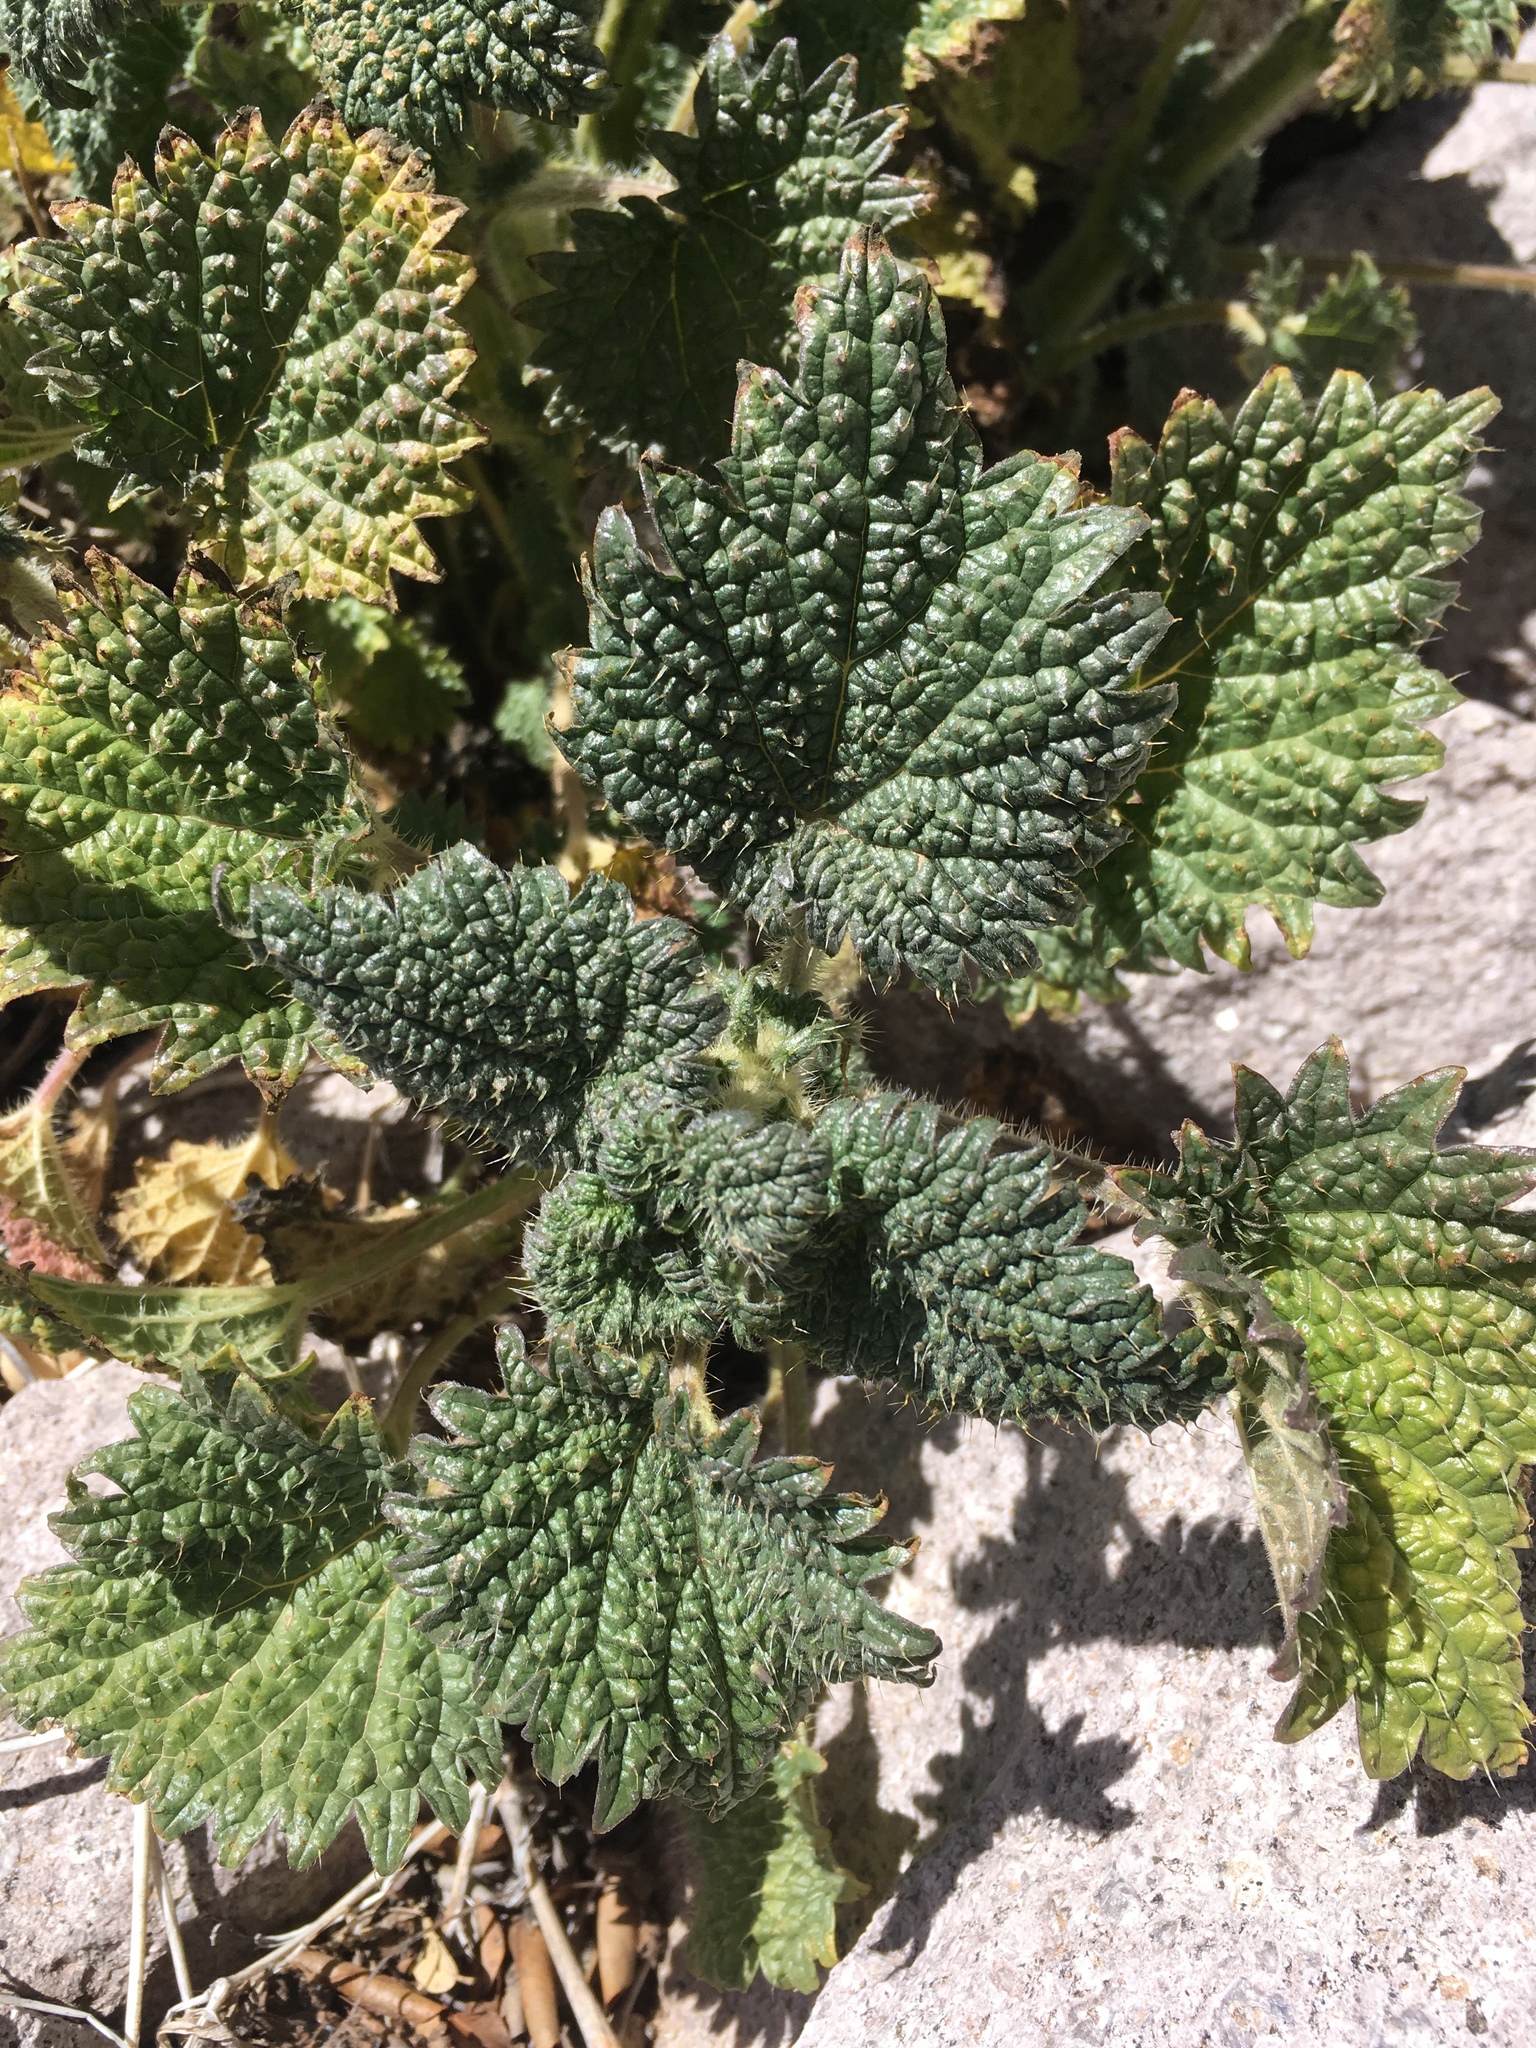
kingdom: Plantae
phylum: Tracheophyta
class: Magnoliopsida
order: Rosales
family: Urticaceae
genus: Urtica
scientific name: Urtica gracilenta
